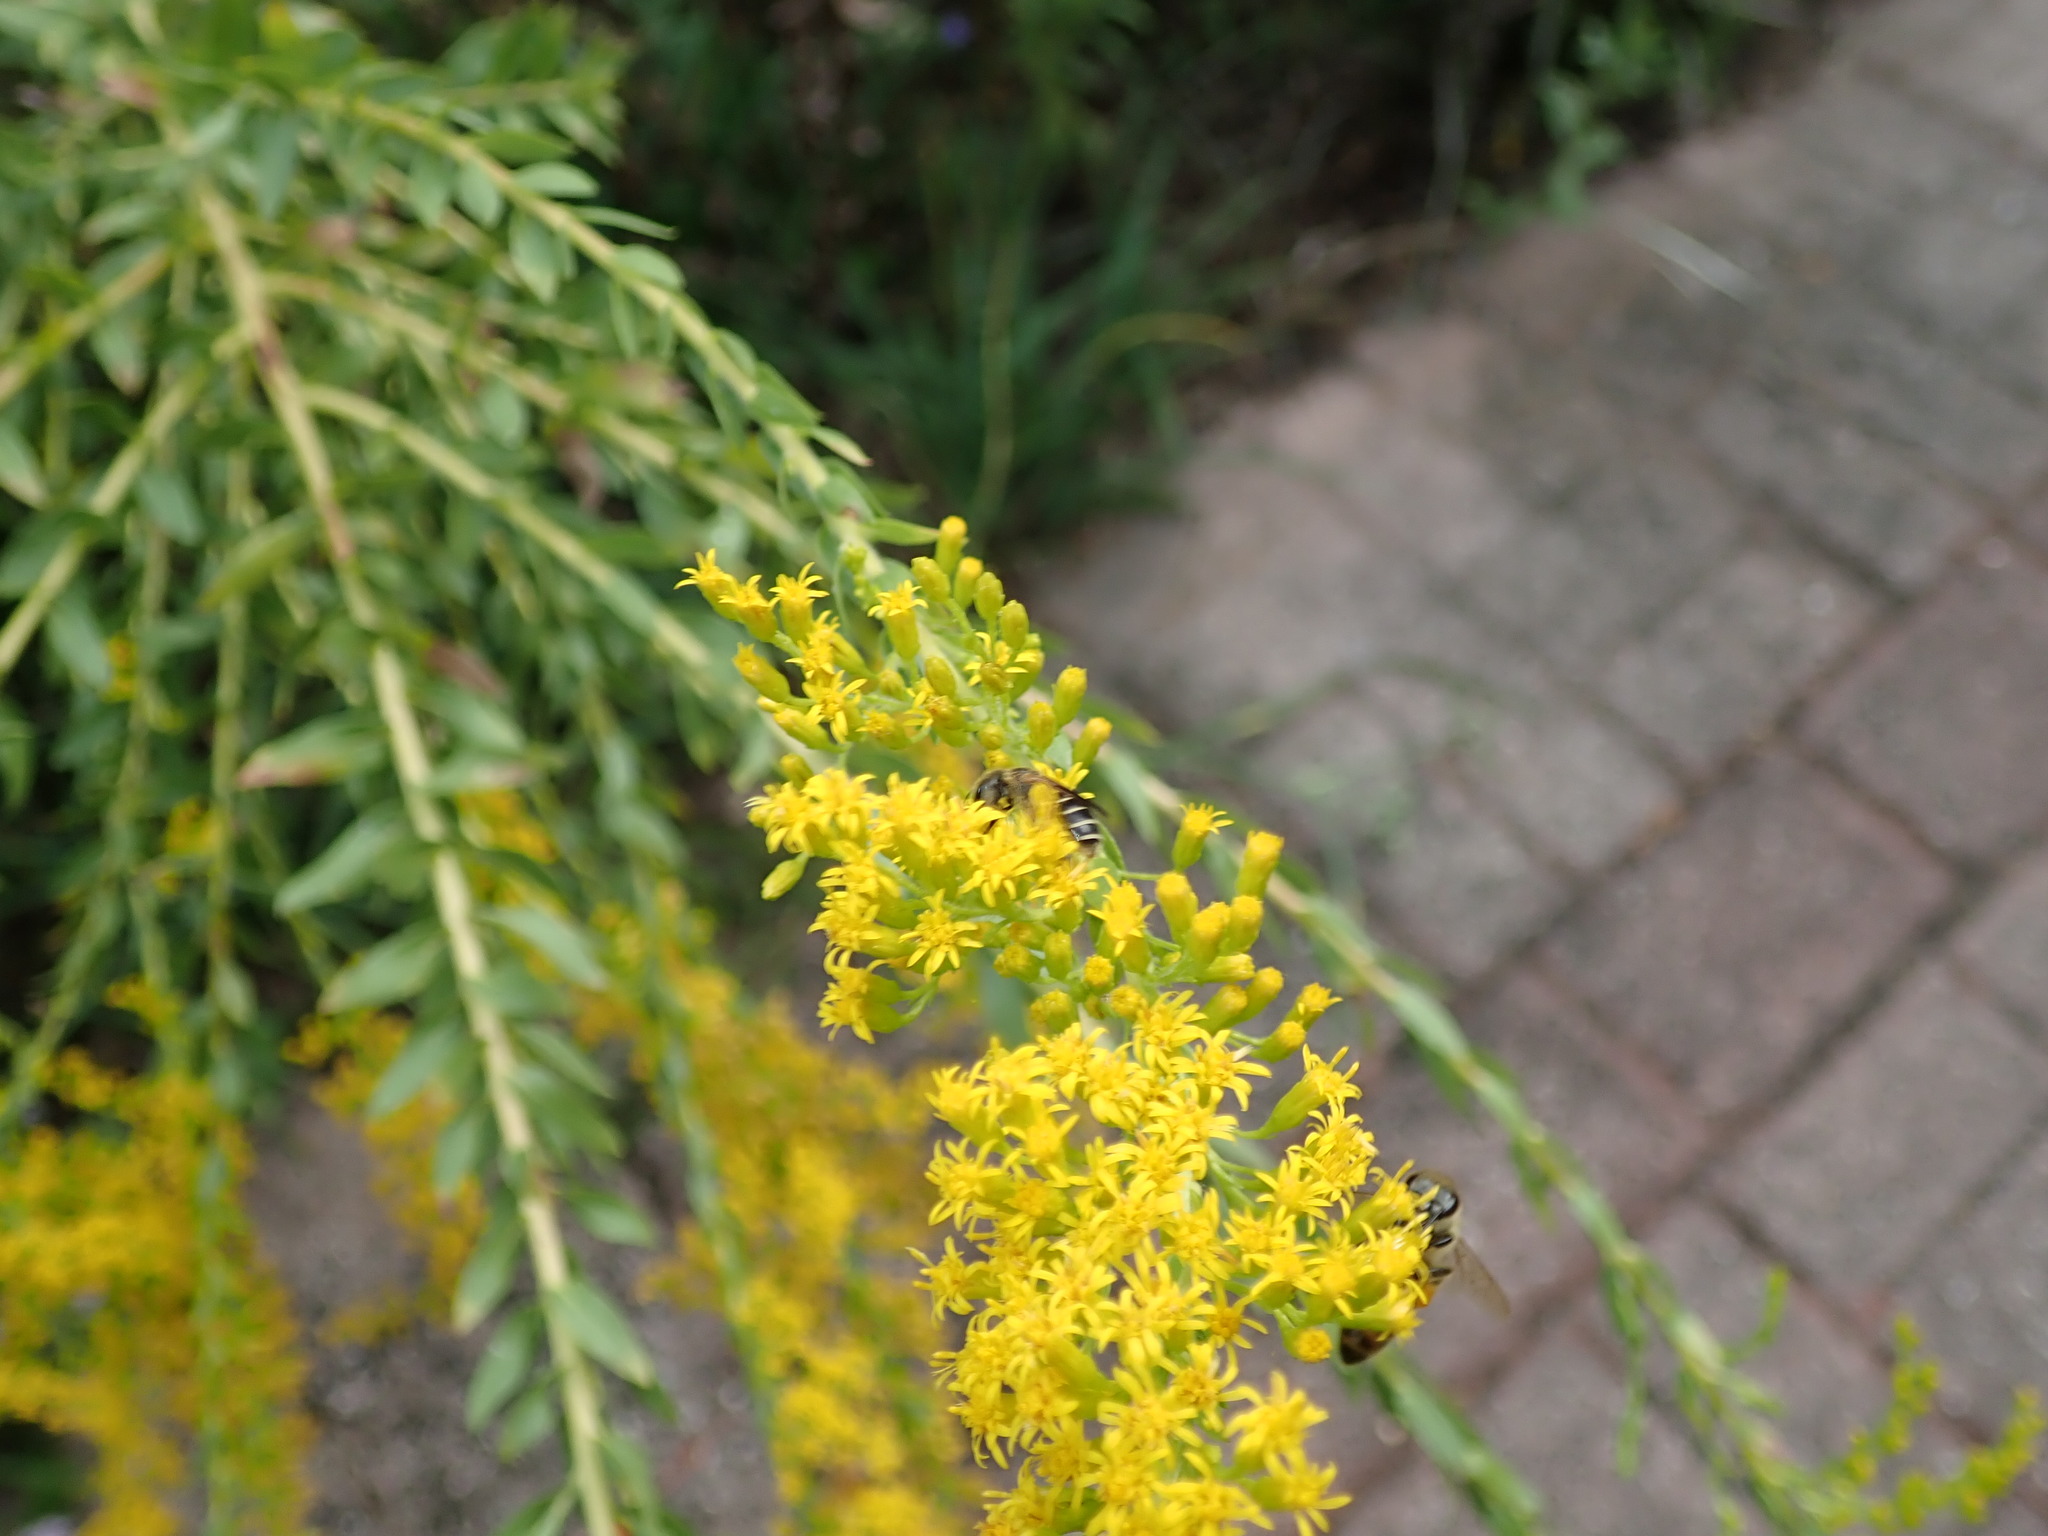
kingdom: Animalia
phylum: Arthropoda
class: Insecta
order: Hymenoptera
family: Halictidae
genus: Halictus
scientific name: Halictus poeyi
